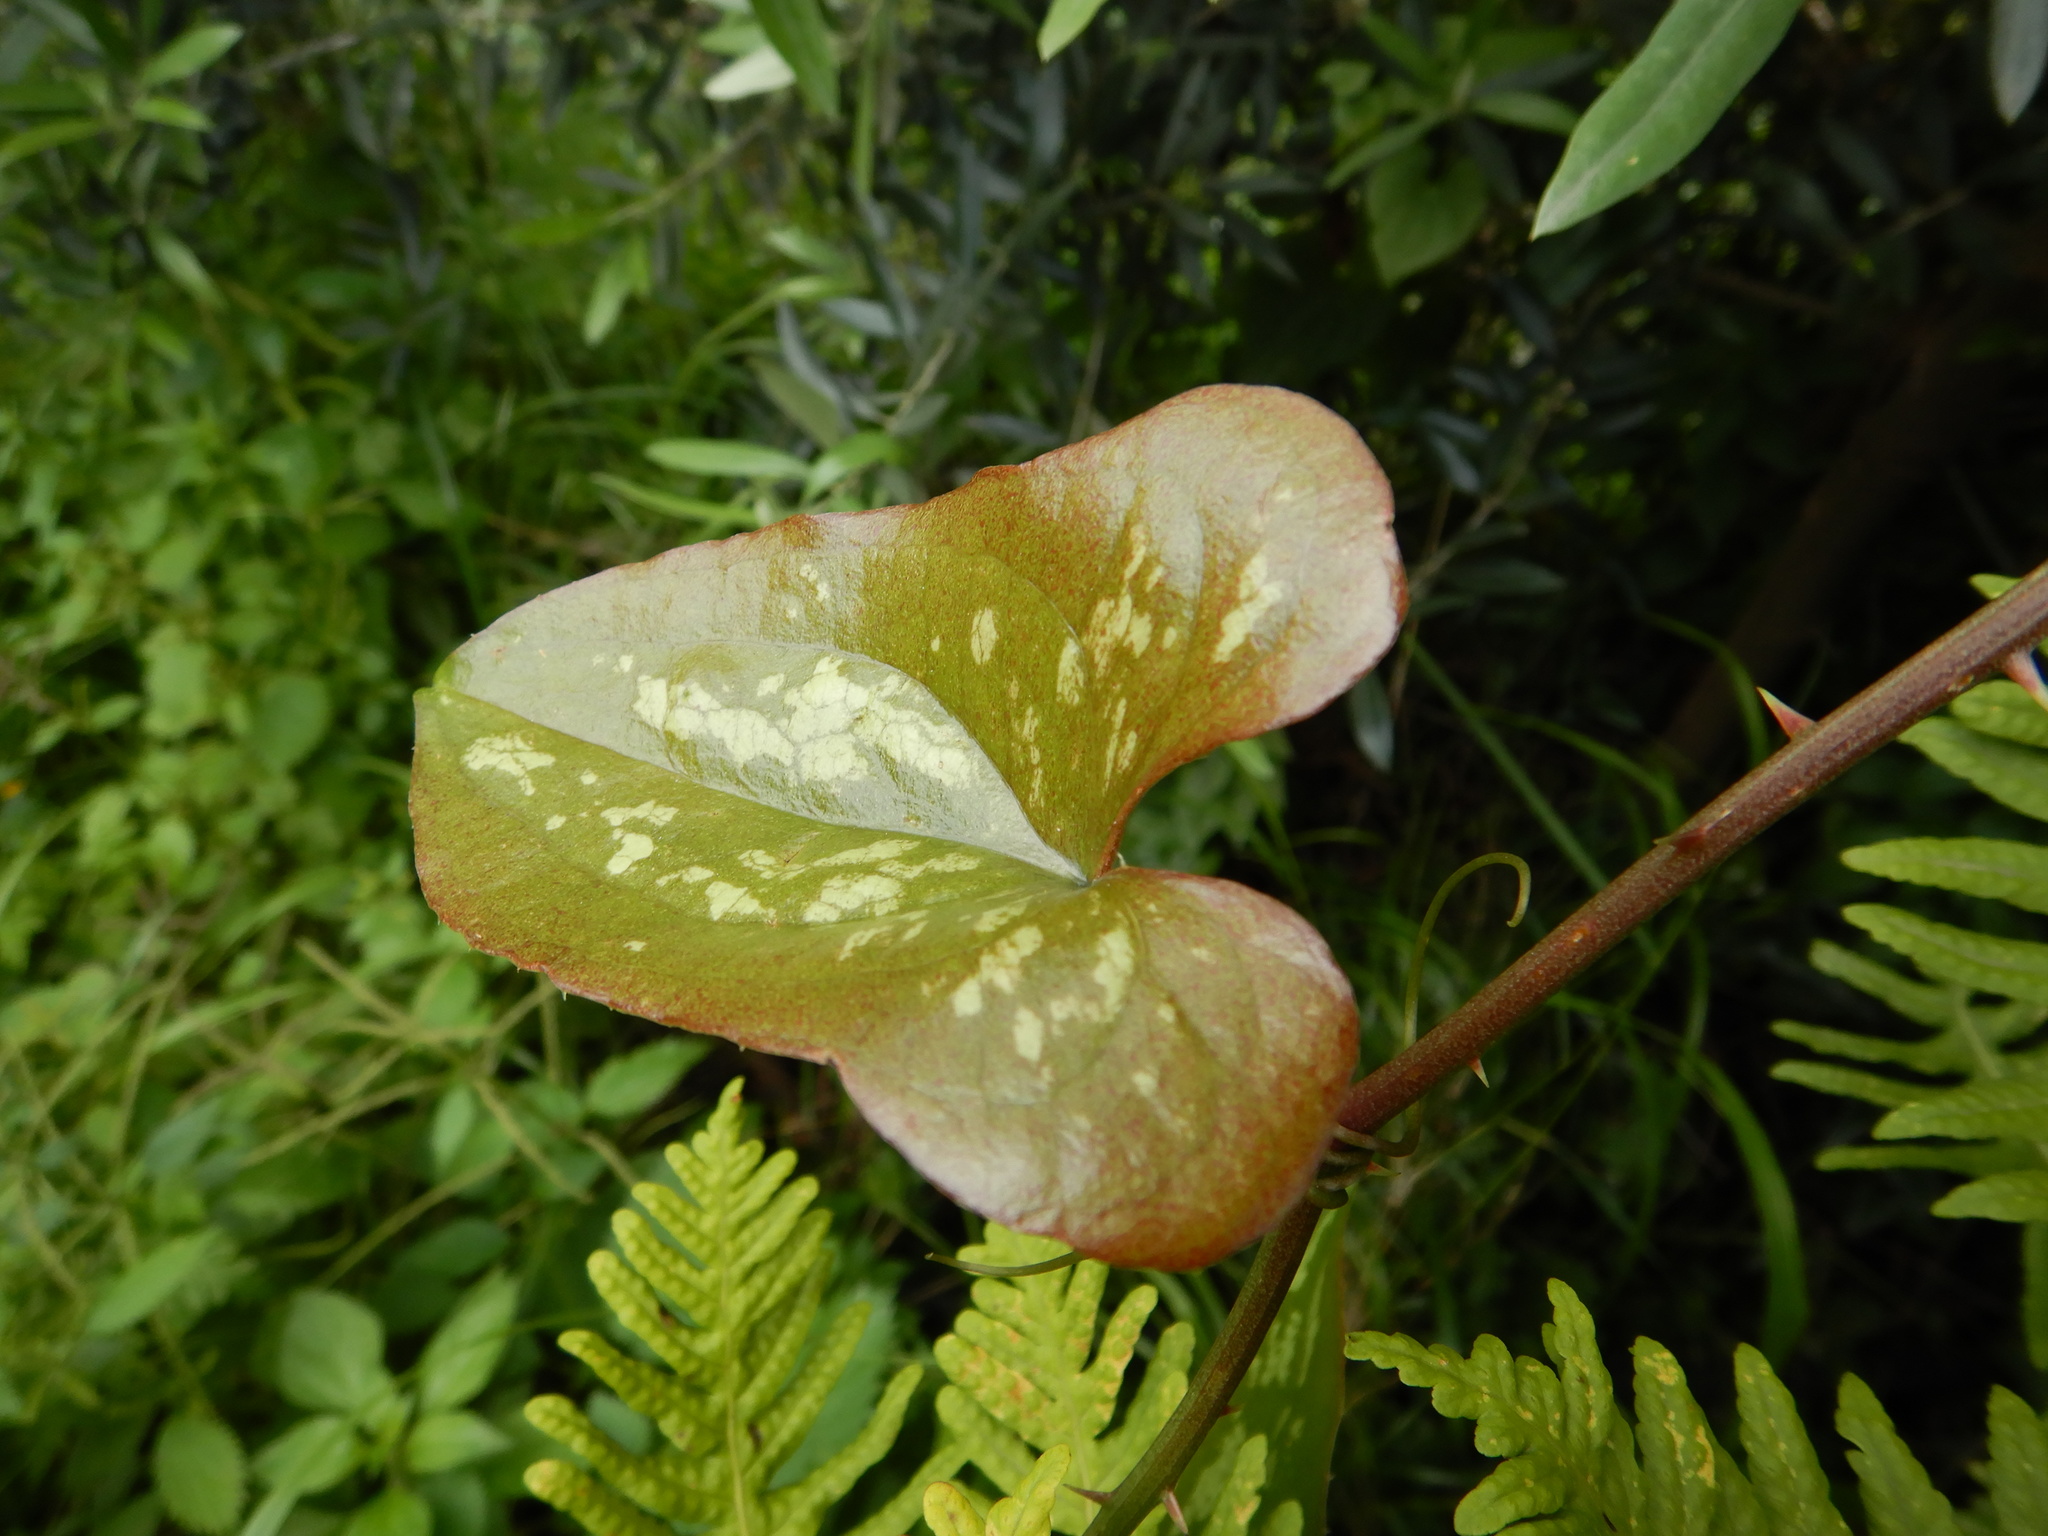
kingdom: Plantae
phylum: Tracheophyta
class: Liliopsida
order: Liliales
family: Smilacaceae
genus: Smilax
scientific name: Smilax aspera
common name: Common smilax
